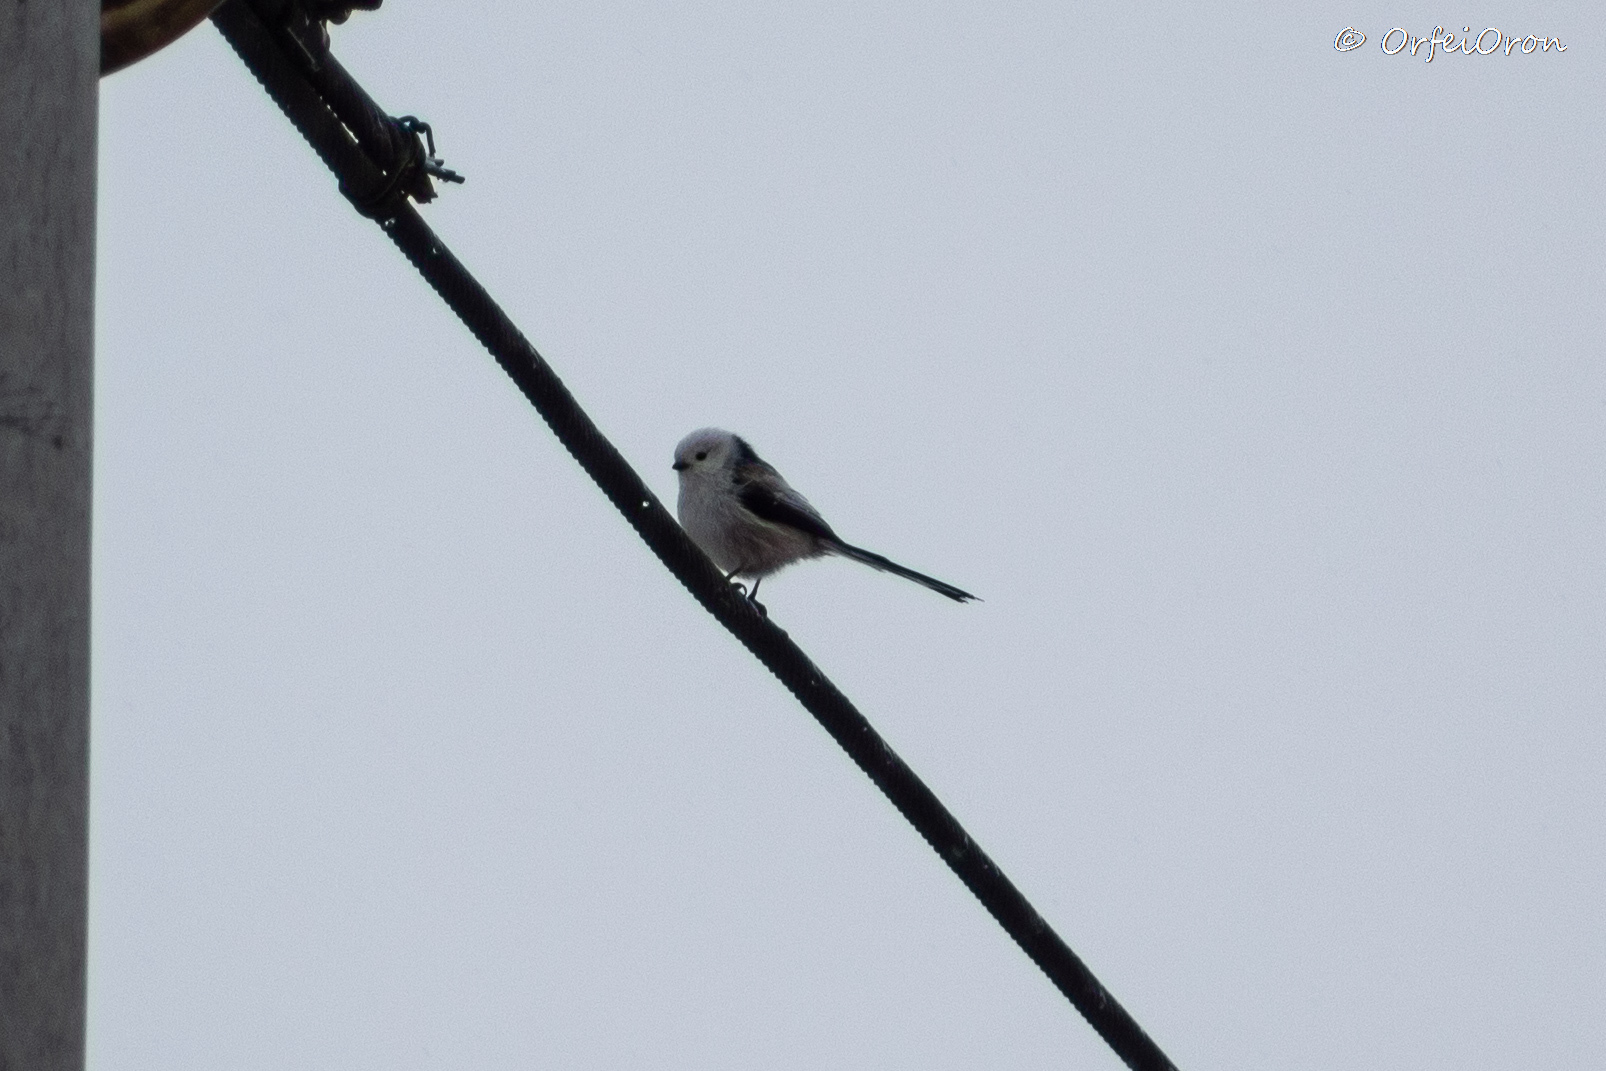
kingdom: Animalia
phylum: Chordata
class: Aves
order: Passeriformes
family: Aegithalidae
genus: Aegithalos
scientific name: Aegithalos caudatus
